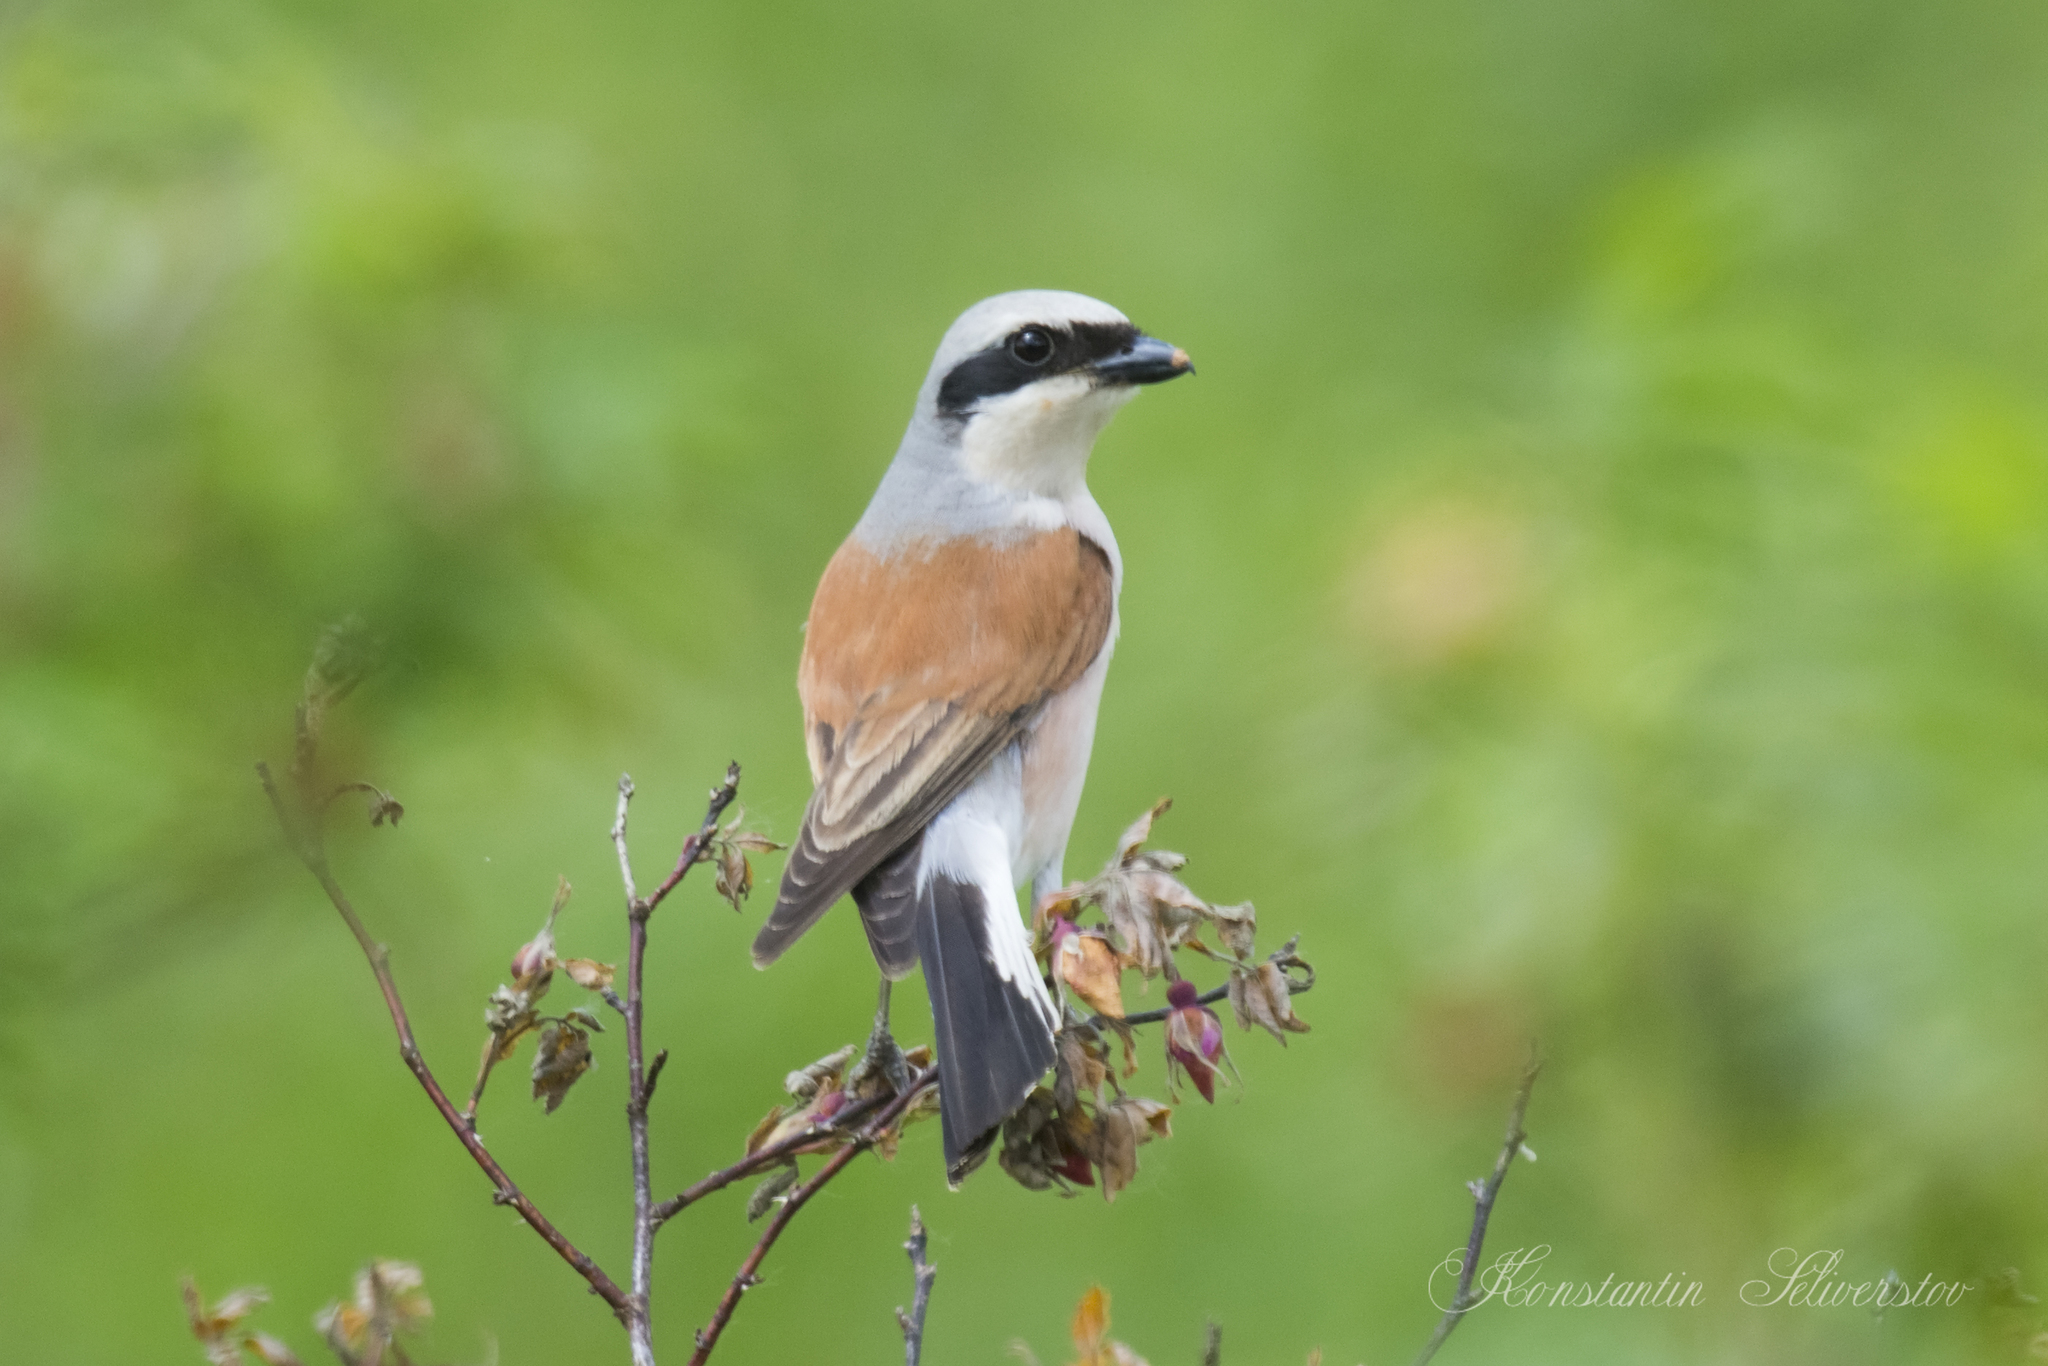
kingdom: Animalia
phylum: Chordata
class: Aves
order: Passeriformes
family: Laniidae
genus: Lanius
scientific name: Lanius collurio
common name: Red-backed shrike
